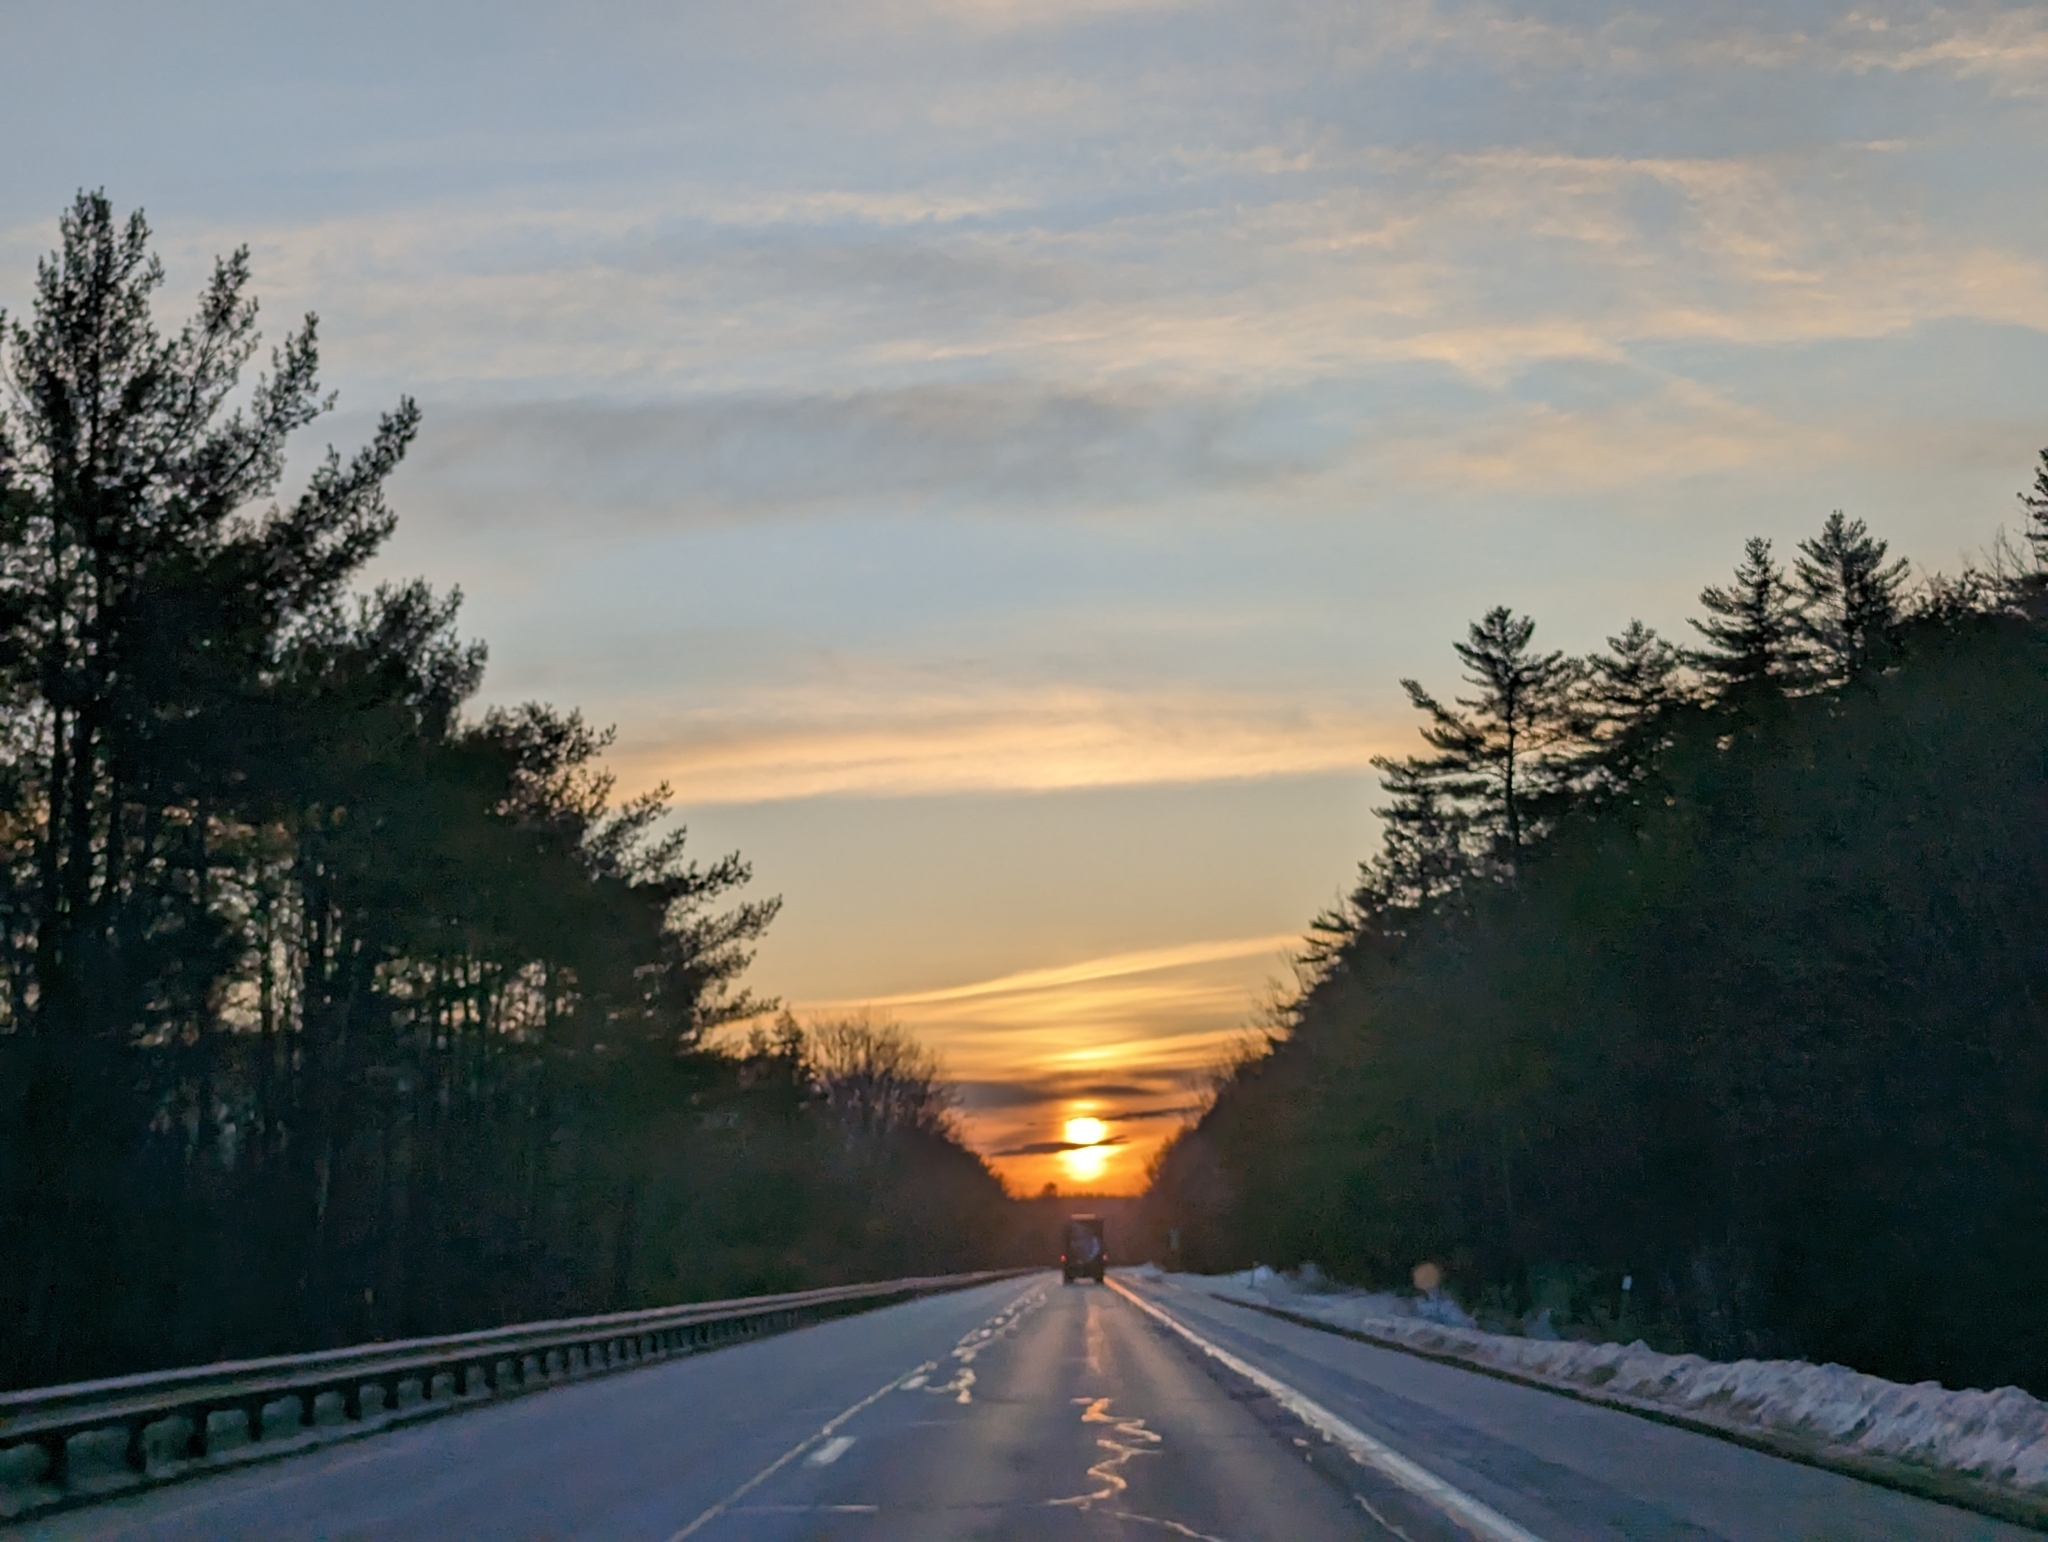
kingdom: Plantae
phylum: Tracheophyta
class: Pinopsida
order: Pinales
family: Pinaceae
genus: Pinus
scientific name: Pinus strobus
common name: Weymouth pine
